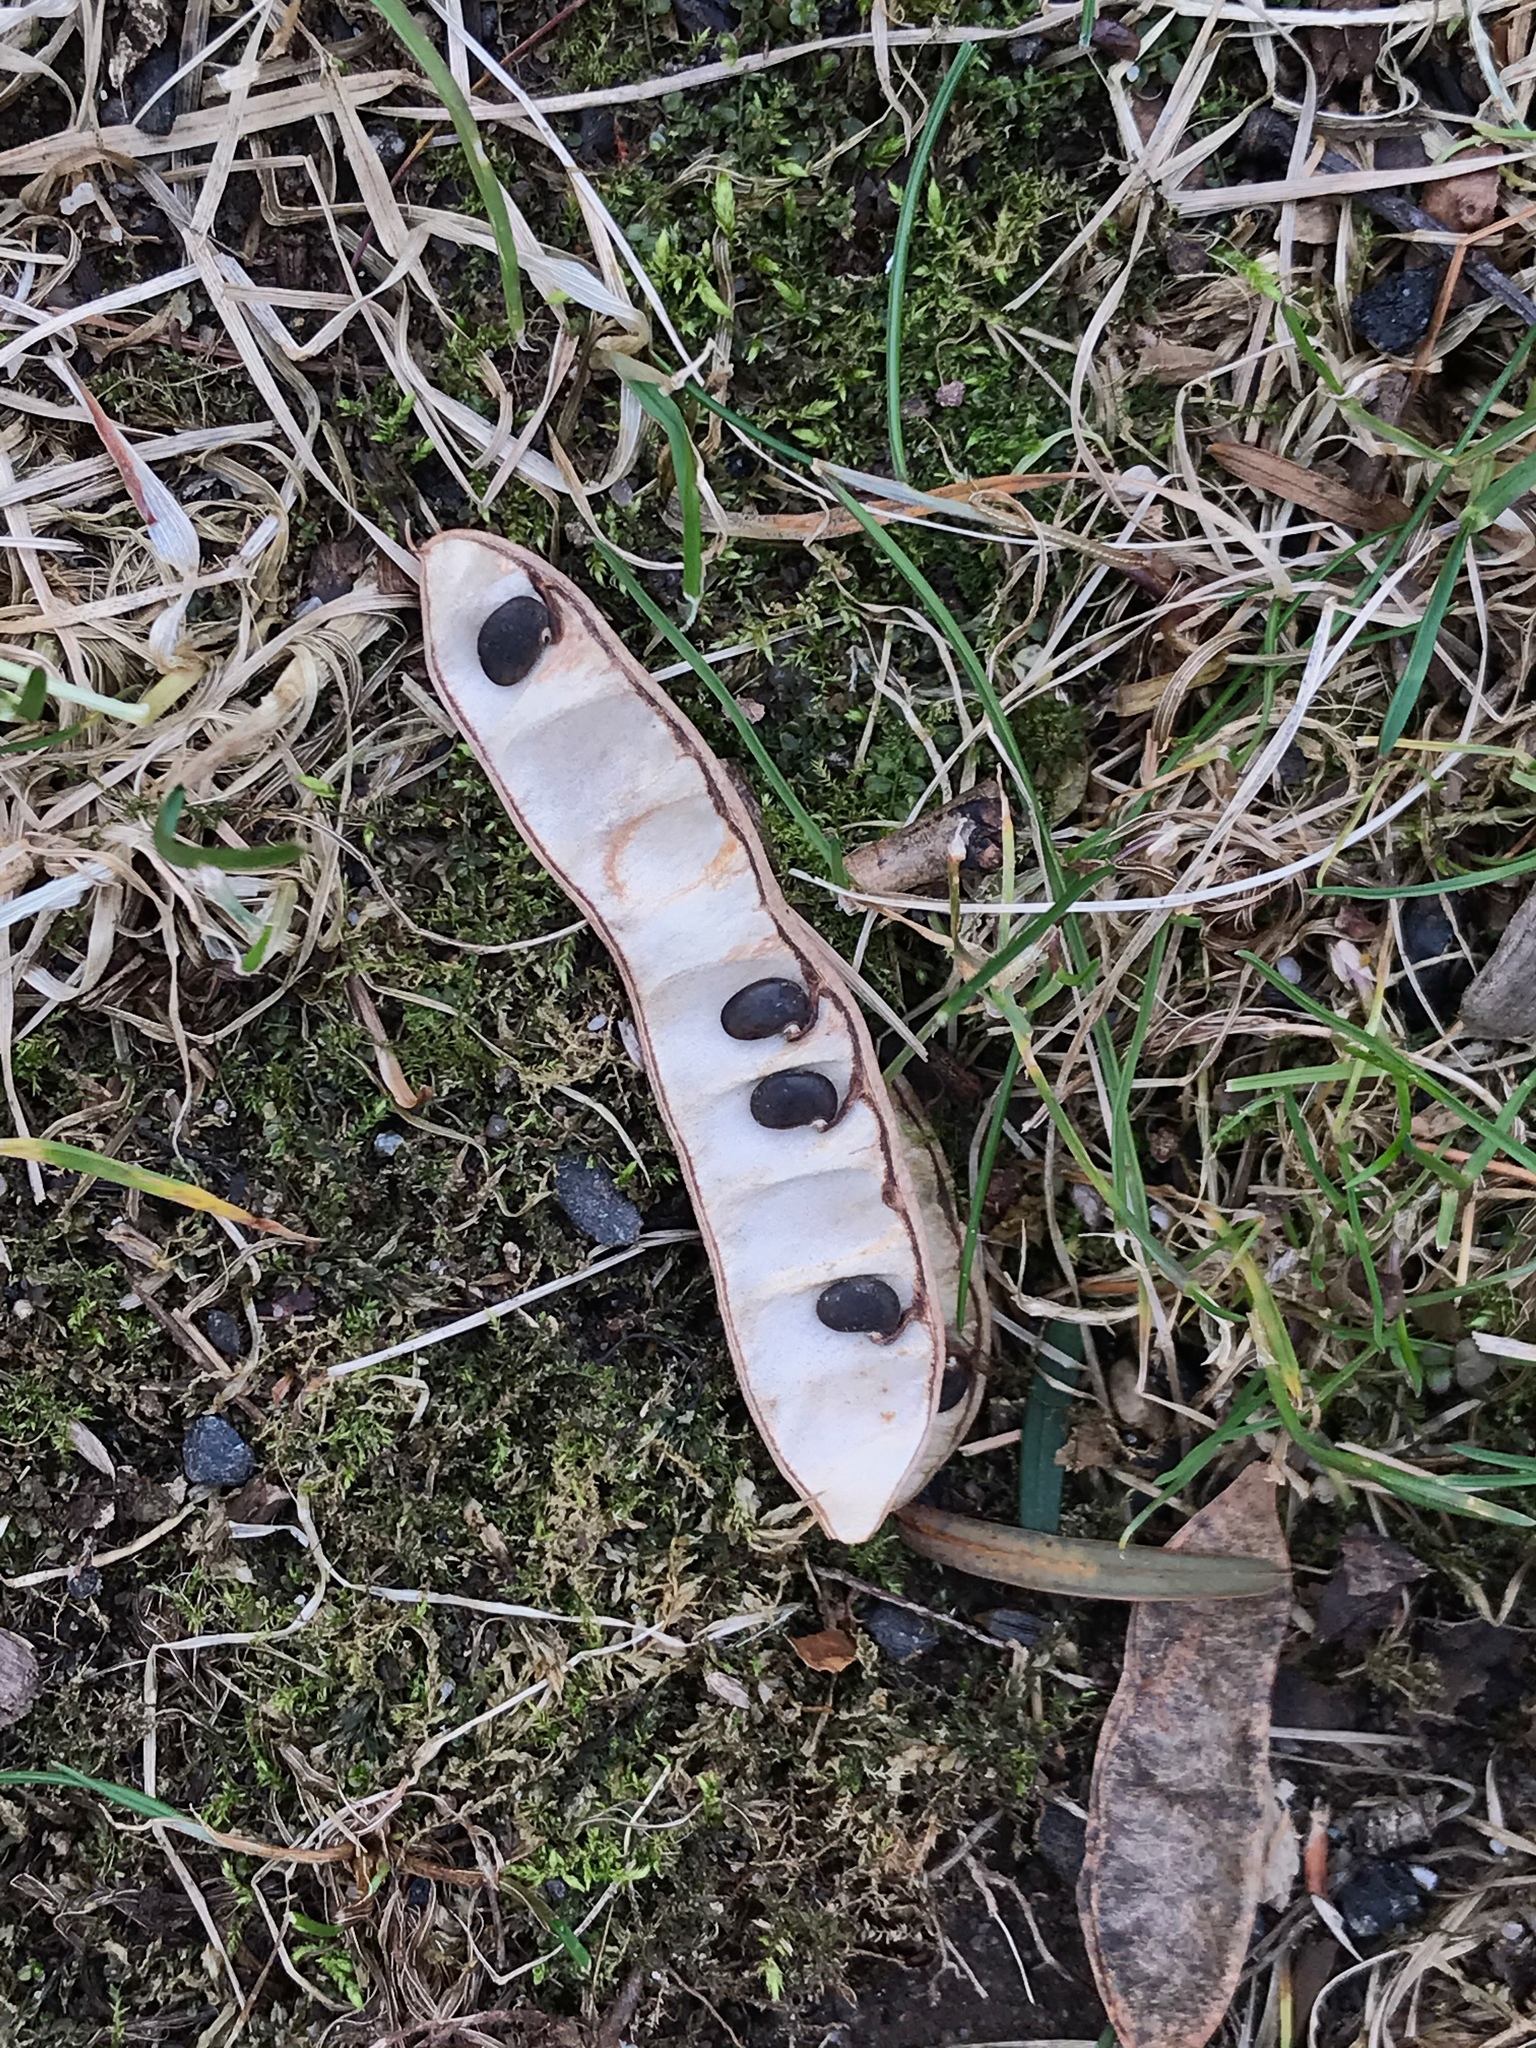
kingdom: Plantae
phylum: Tracheophyta
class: Magnoliopsida
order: Fabales
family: Fabaceae
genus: Robinia
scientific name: Robinia pseudoacacia
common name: Black locust
